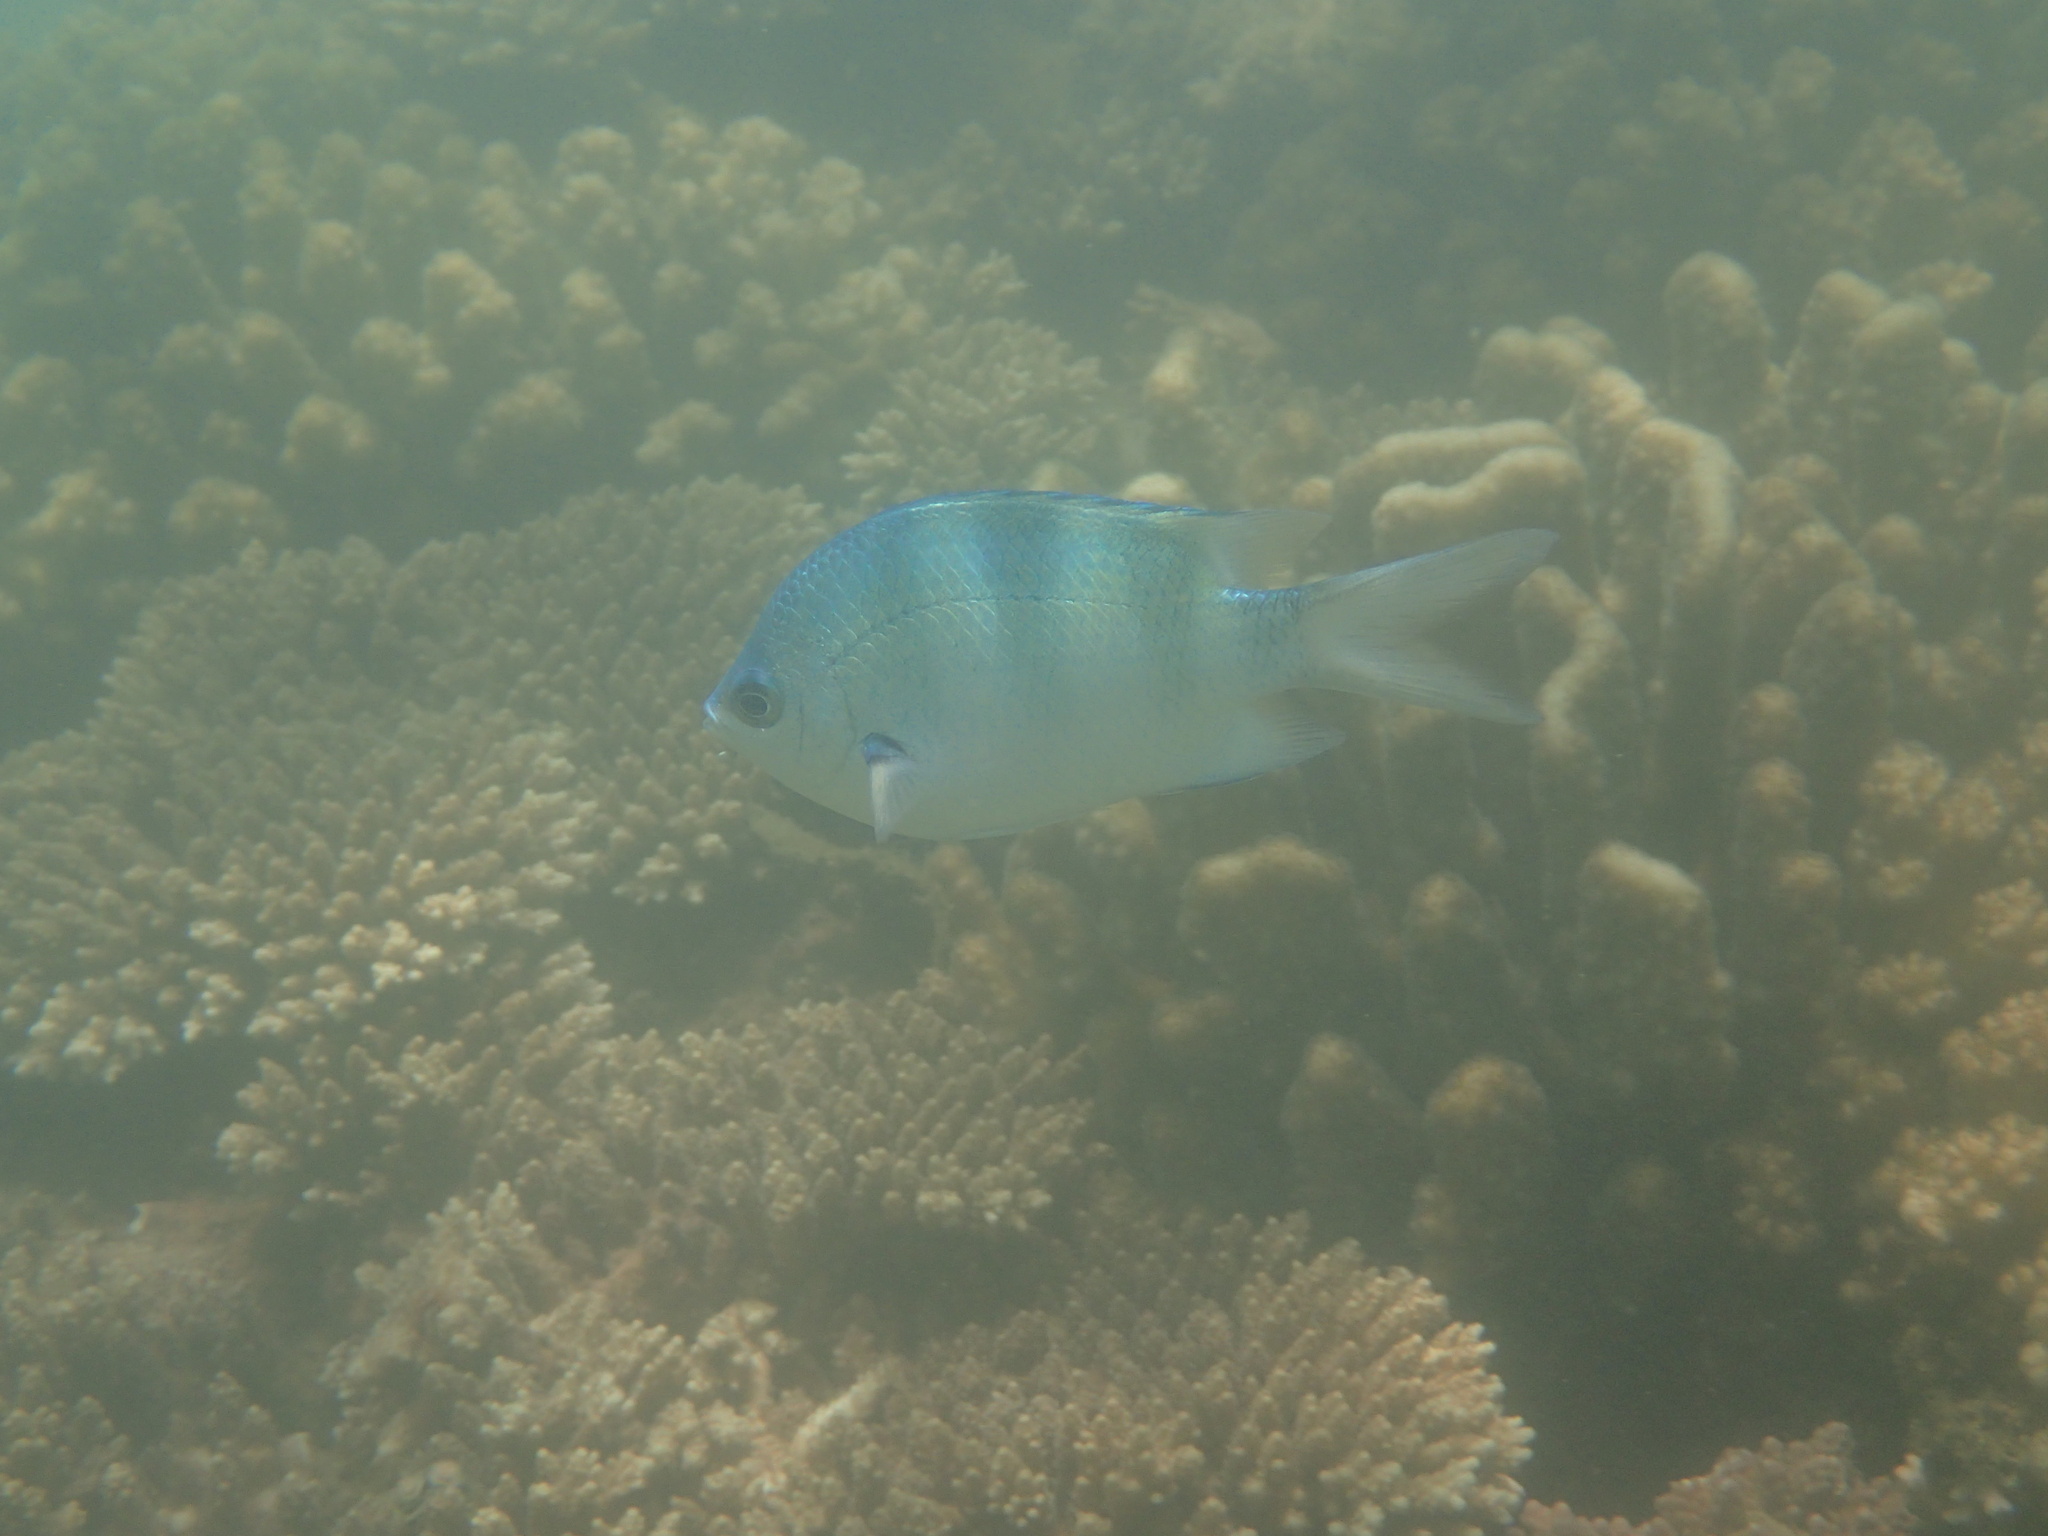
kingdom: Animalia
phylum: Chordata
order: Perciformes
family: Pomacentridae
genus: Abudefduf
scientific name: Abudefduf natalensis
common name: Natal sergeant
